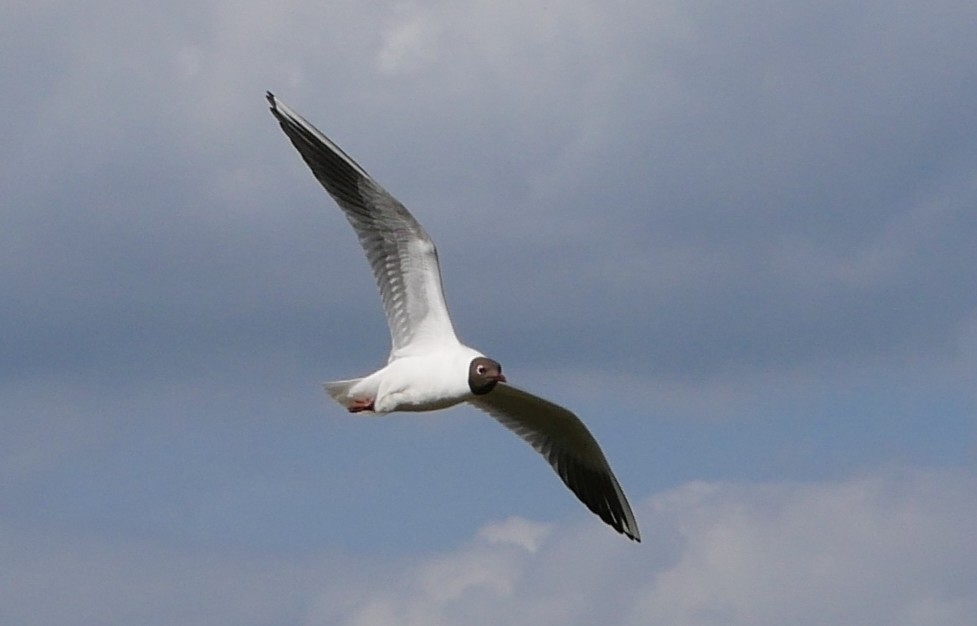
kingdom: Animalia
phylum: Chordata
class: Aves
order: Charadriiformes
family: Laridae
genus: Chroicocephalus
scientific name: Chroicocephalus ridibundus
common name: Black-headed gull
